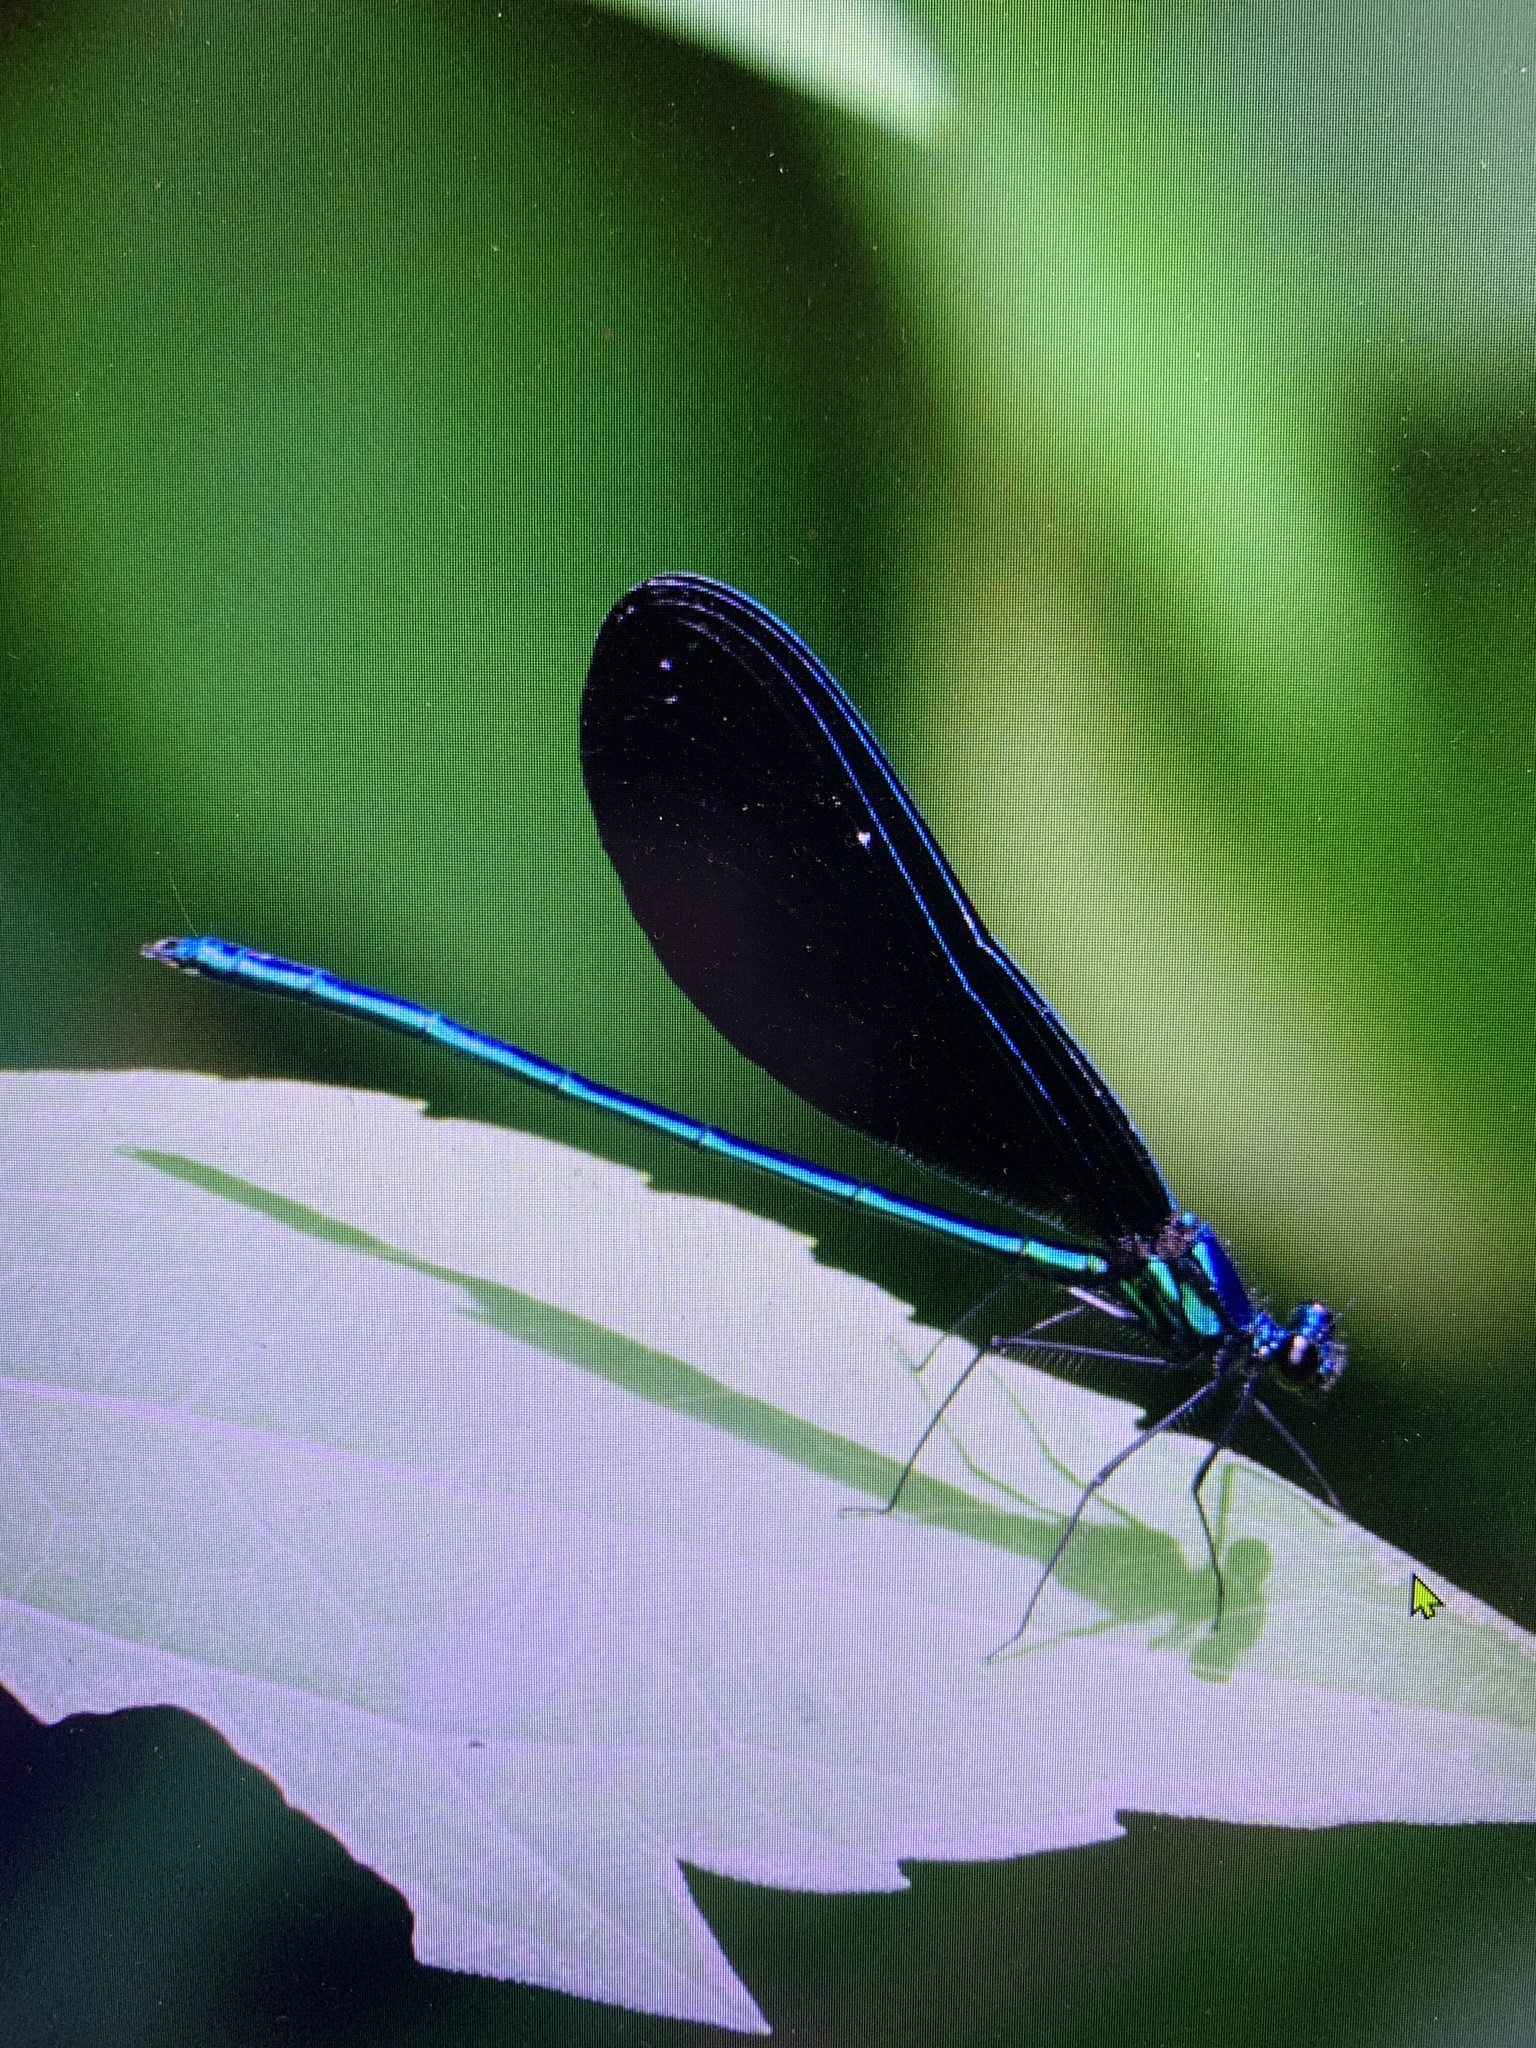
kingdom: Animalia
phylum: Arthropoda
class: Insecta
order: Odonata
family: Calopterygidae
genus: Calopteryx
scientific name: Calopteryx maculata
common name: Ebony jewelwing
